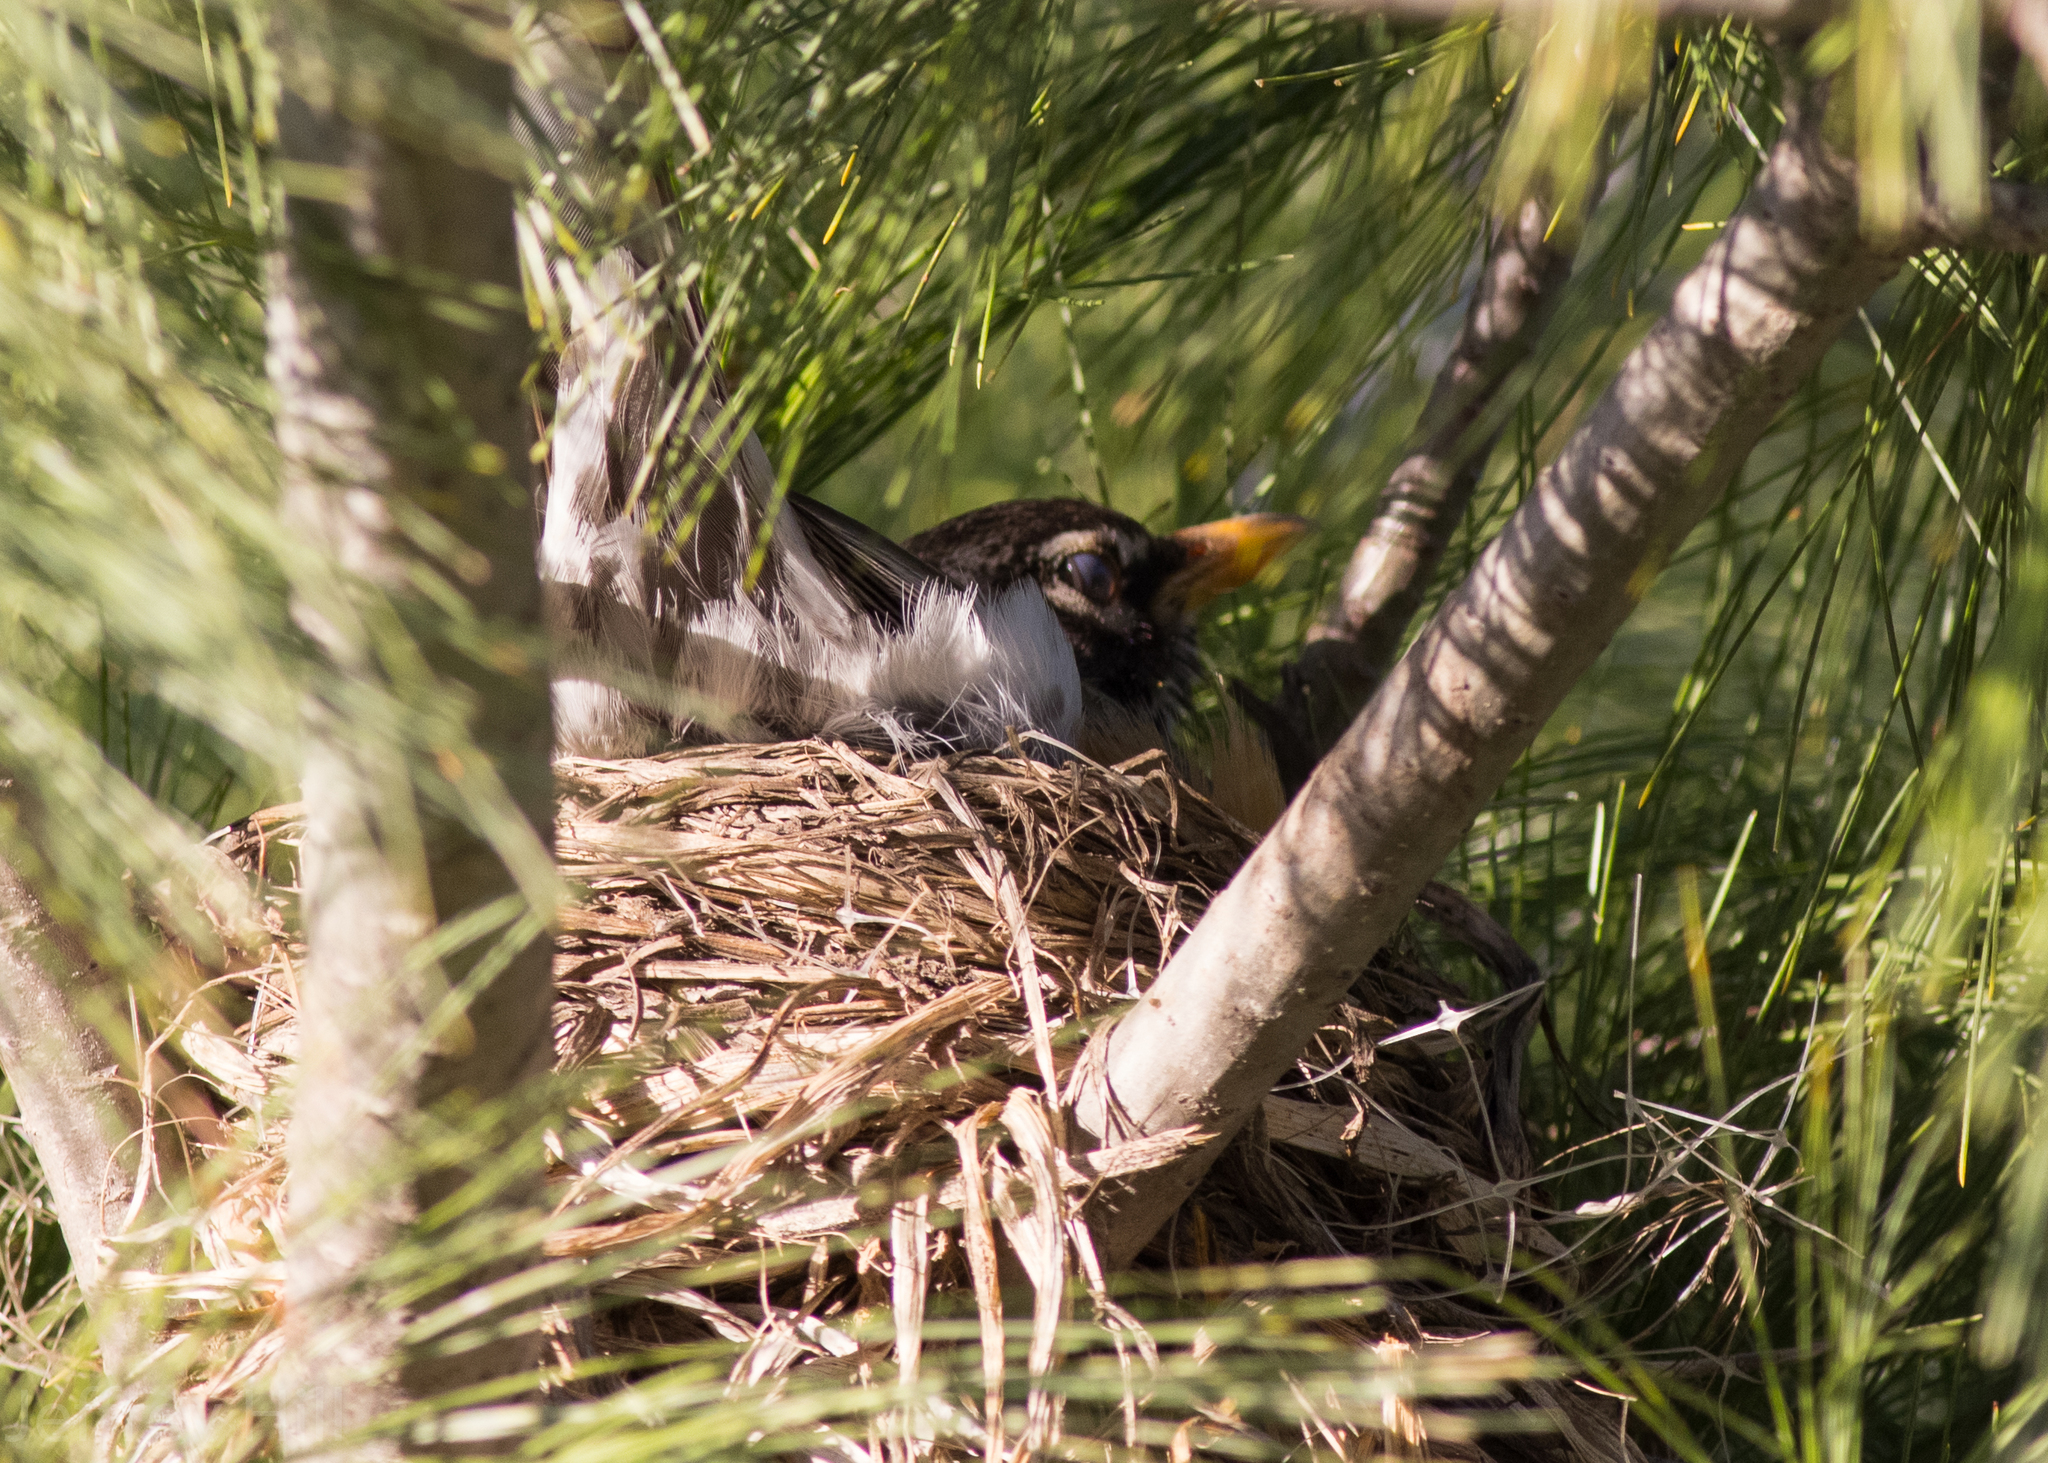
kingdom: Animalia
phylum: Chordata
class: Aves
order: Passeriformes
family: Turdidae
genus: Turdus
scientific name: Turdus migratorius
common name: American robin
